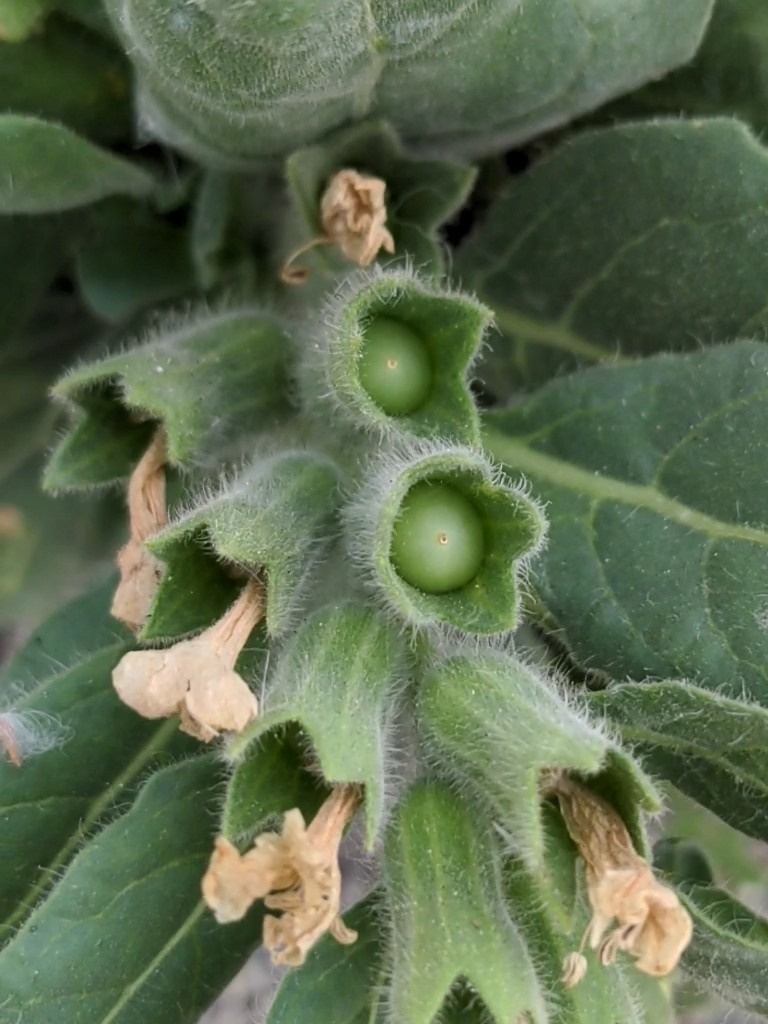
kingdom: Plantae
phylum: Tracheophyta
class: Magnoliopsida
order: Solanales
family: Solanaceae
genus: Hyoscyamus
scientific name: Hyoscyamus albus
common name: White henbane
